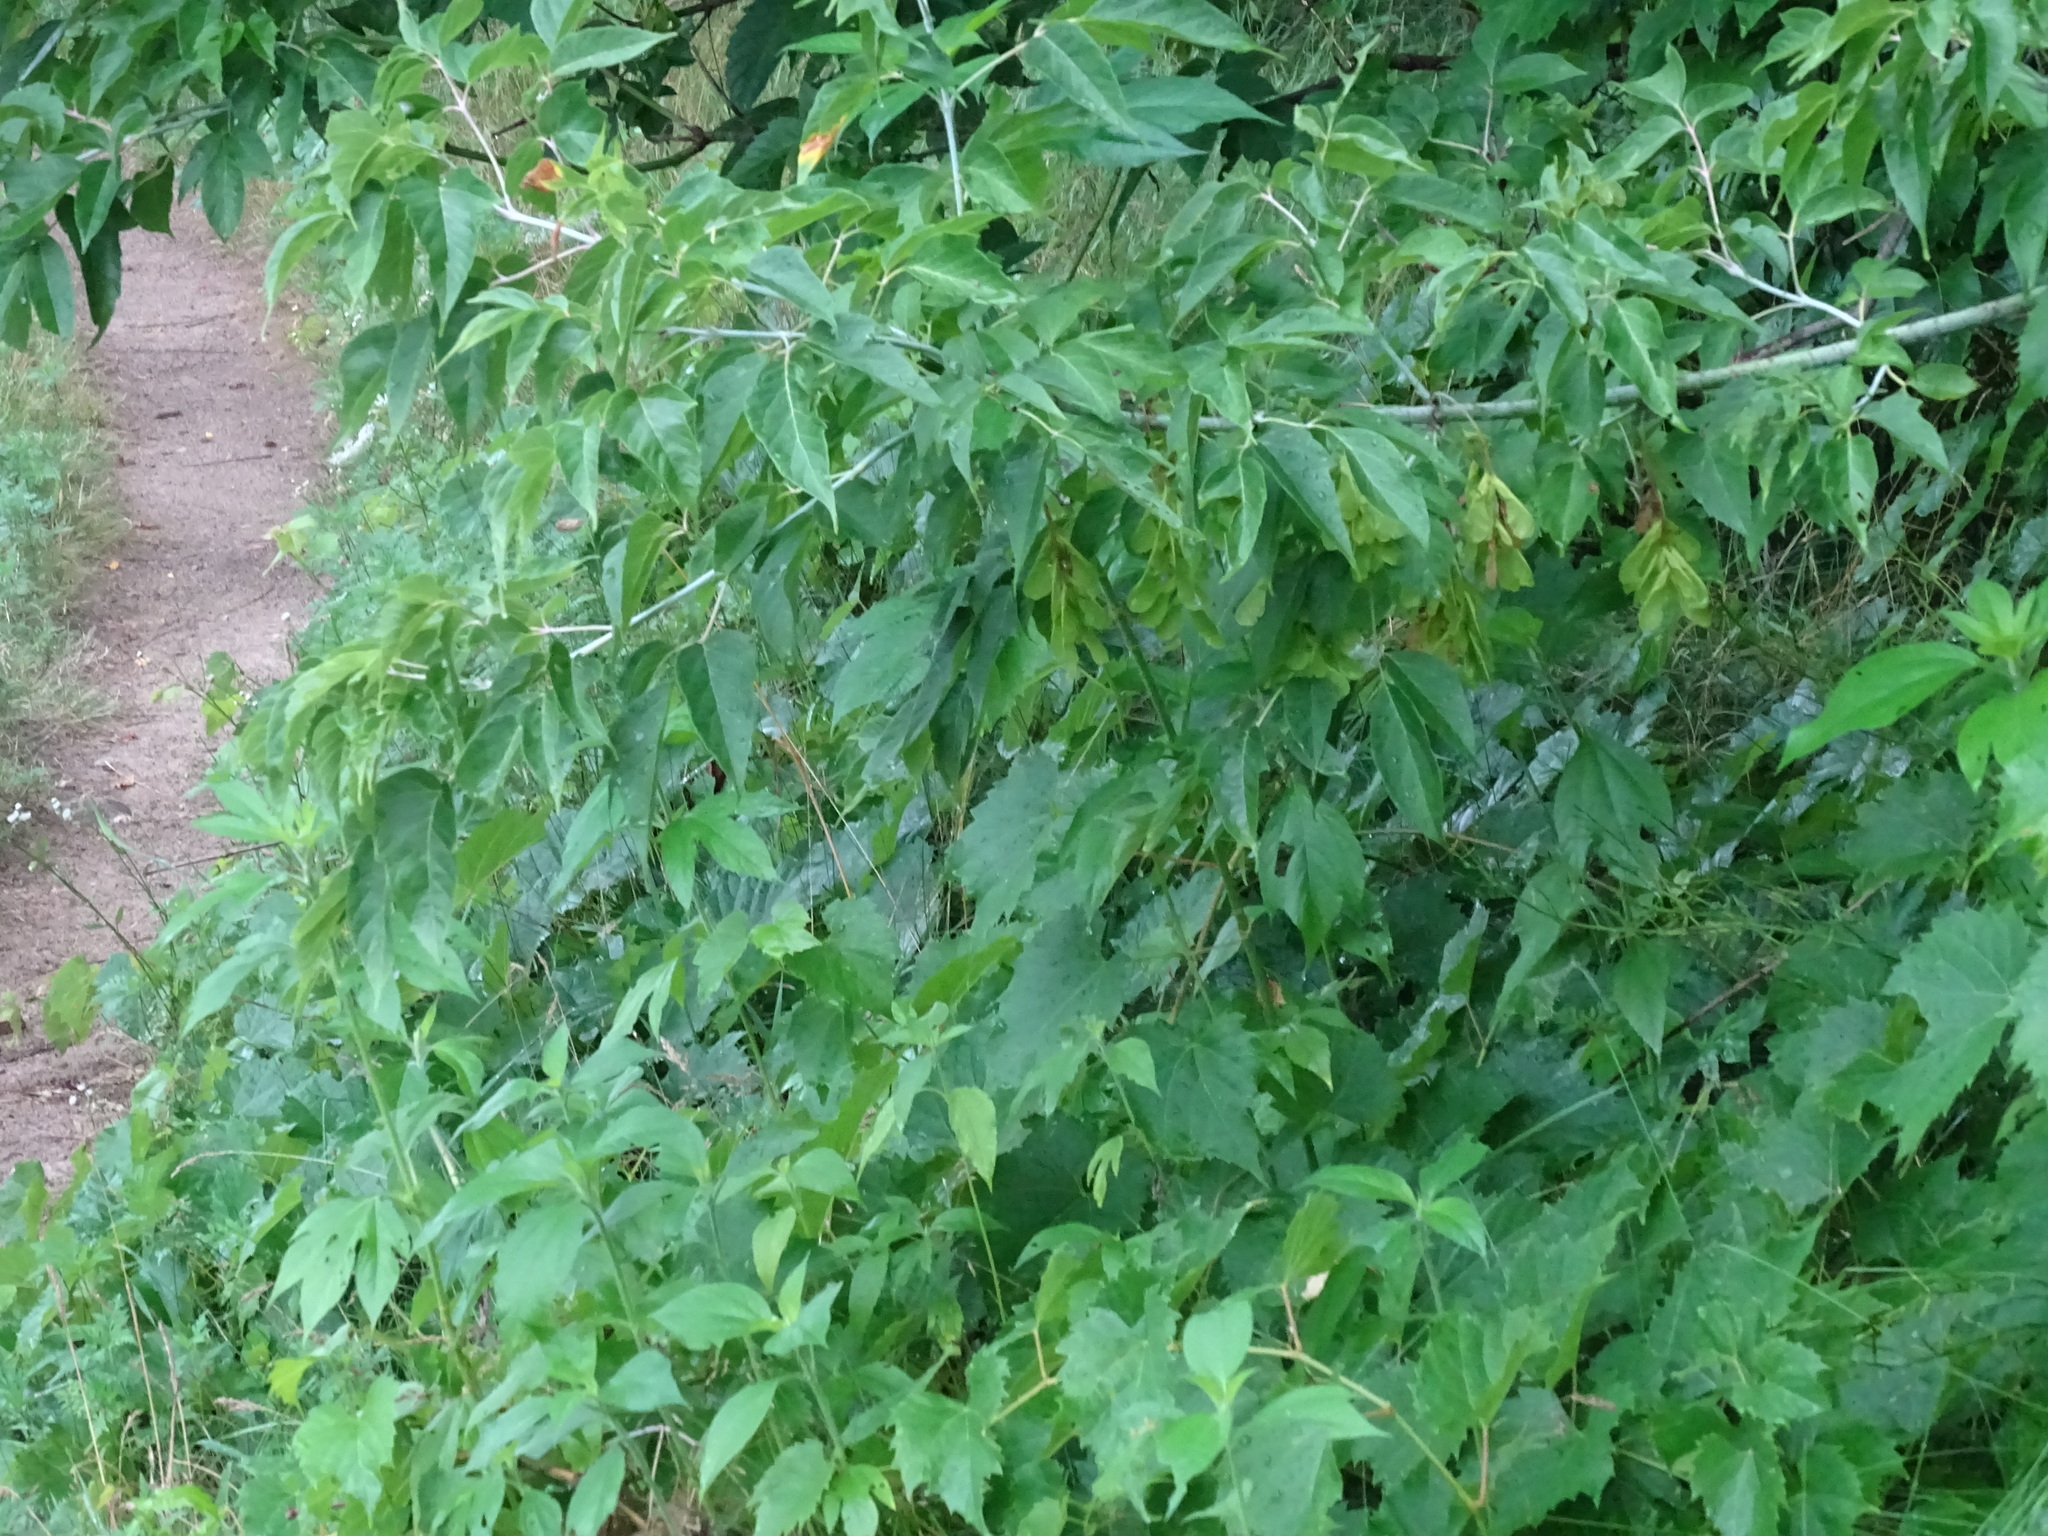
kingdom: Plantae
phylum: Tracheophyta
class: Magnoliopsida
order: Sapindales
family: Sapindaceae
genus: Acer
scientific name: Acer negundo
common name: Ashleaf maple
